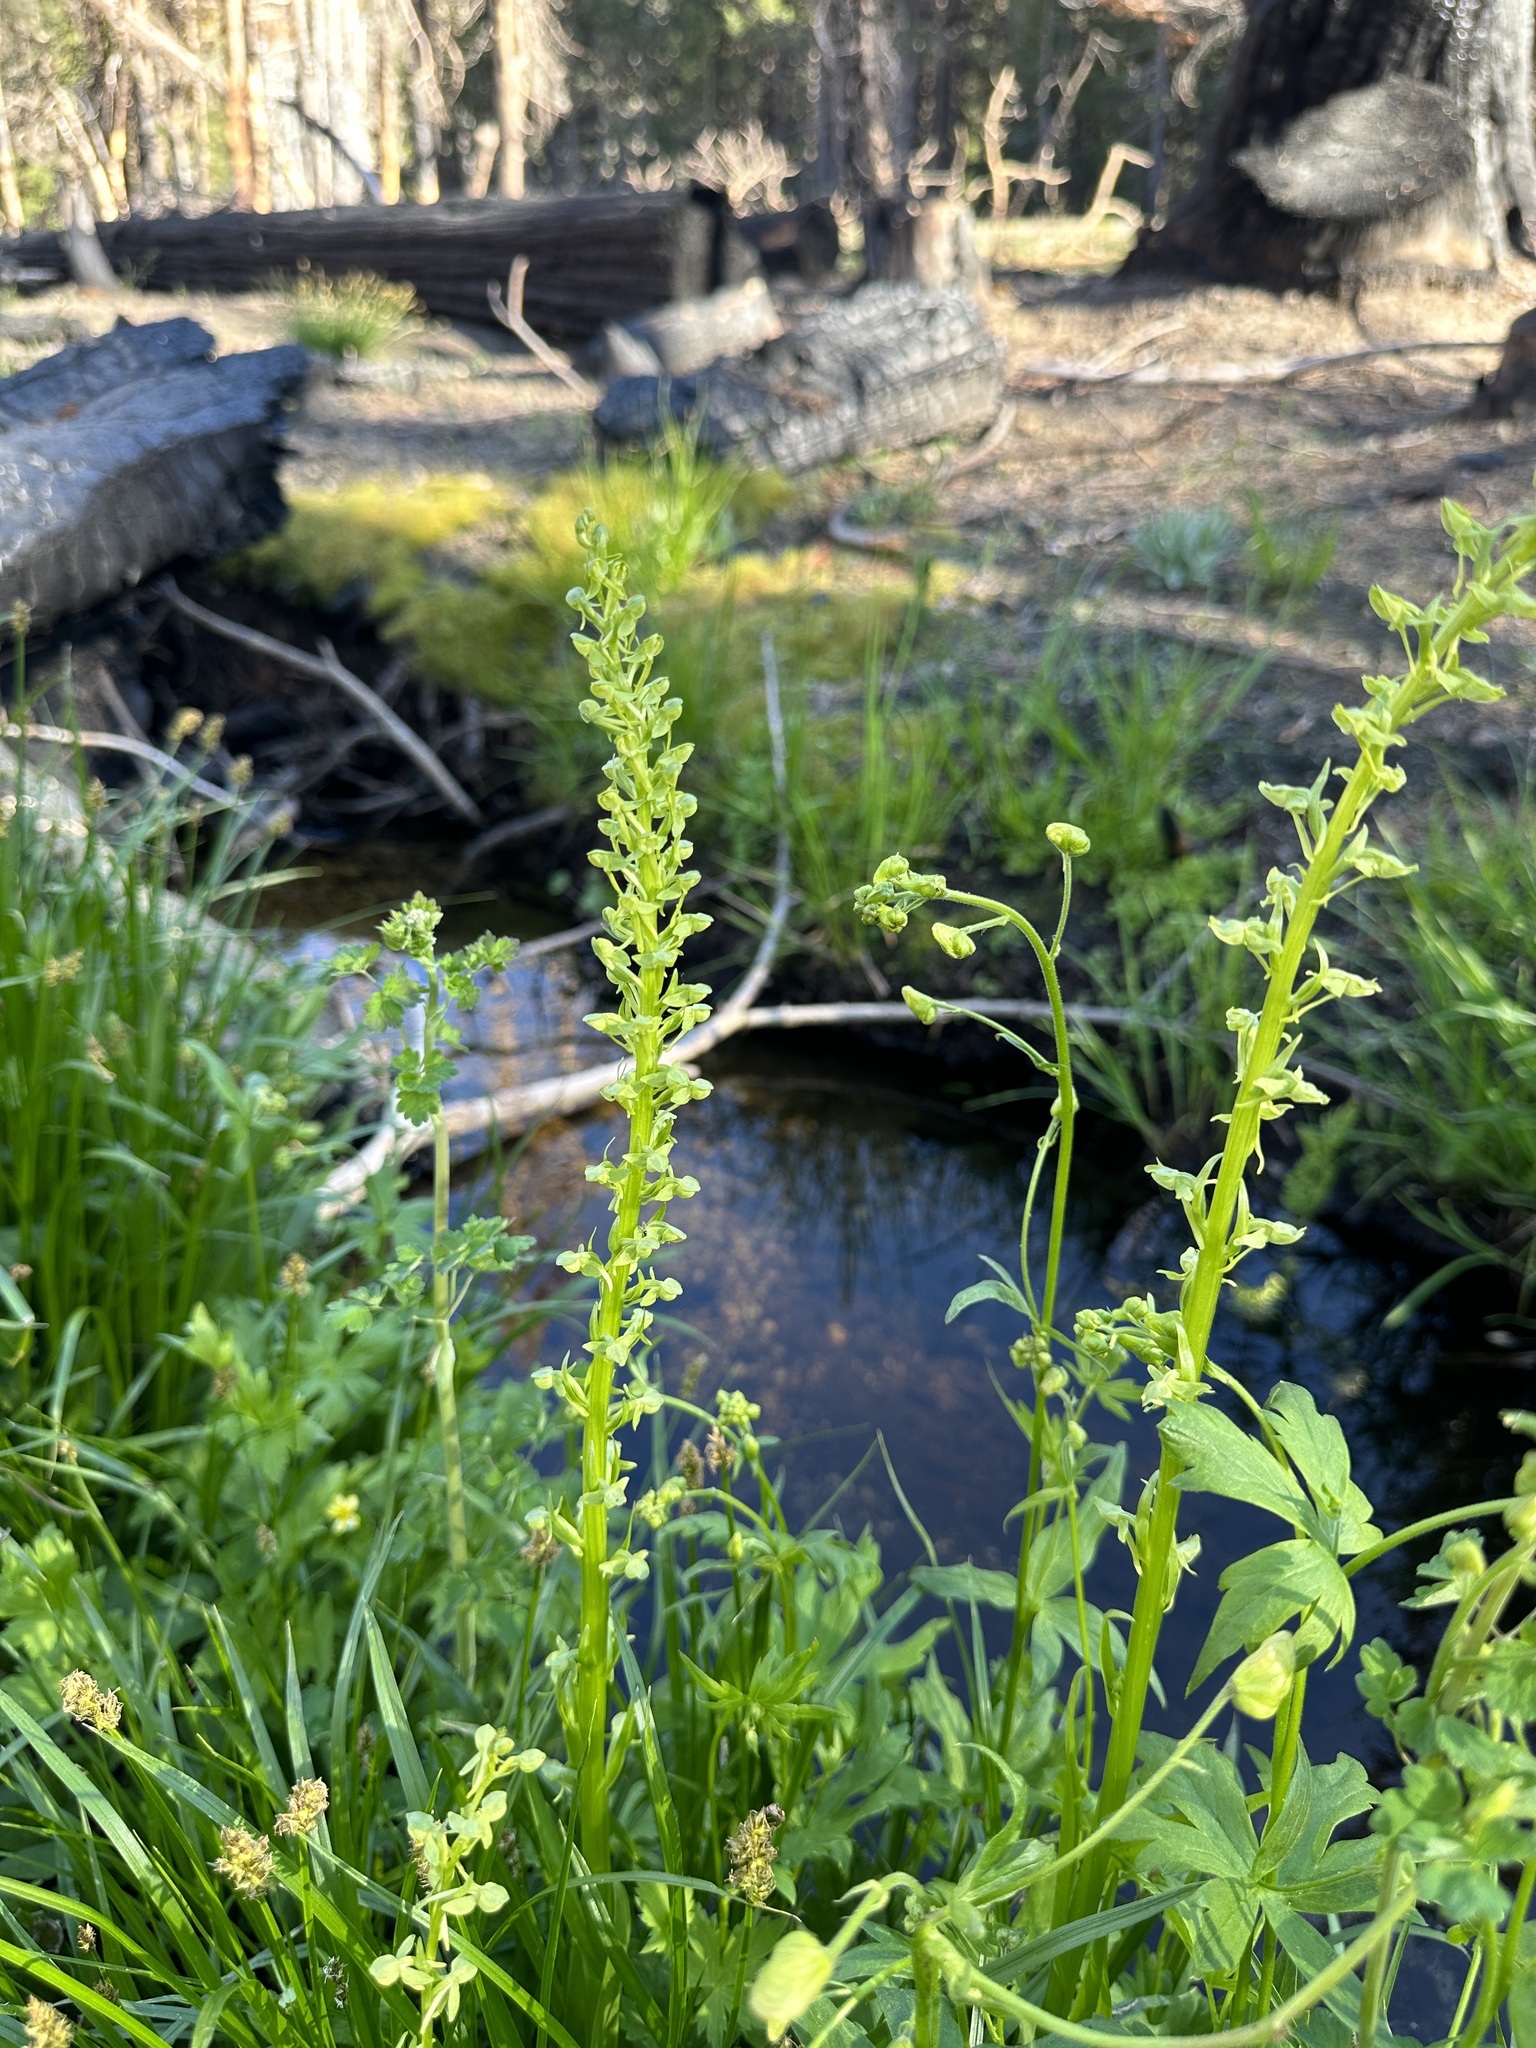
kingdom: Plantae
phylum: Tracheophyta
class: Liliopsida
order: Asparagales
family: Orchidaceae
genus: Platanthera
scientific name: Platanthera sparsiflora
